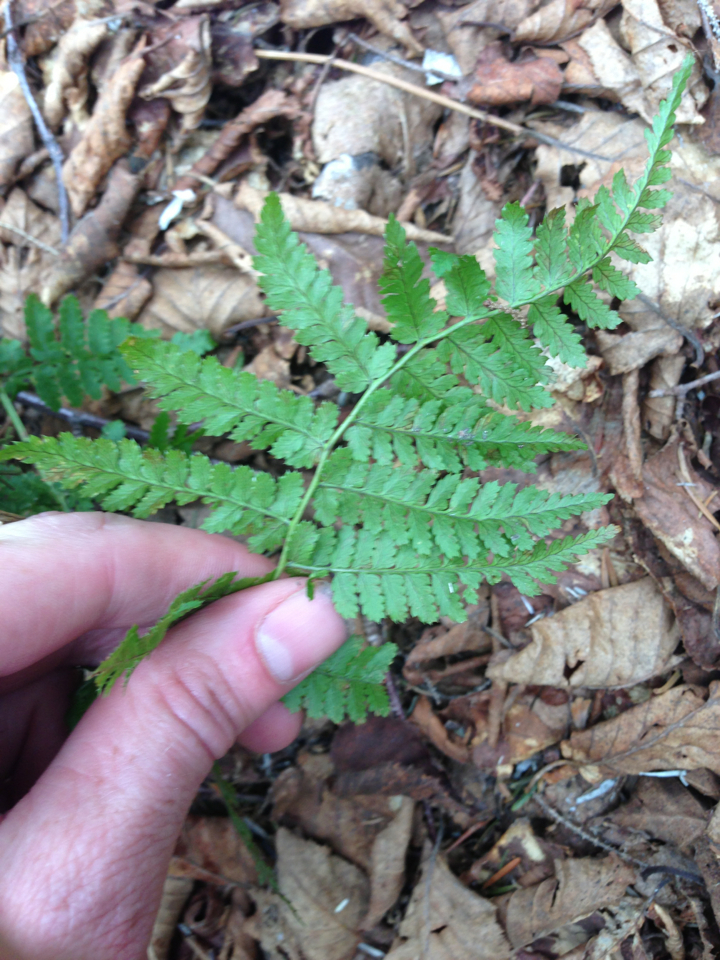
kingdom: Plantae
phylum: Tracheophyta
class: Polypodiopsida
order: Polypodiales
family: Dryopteridaceae
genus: Dryopteris
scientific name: Dryopteris intermedia
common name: Evergreen wood fern
